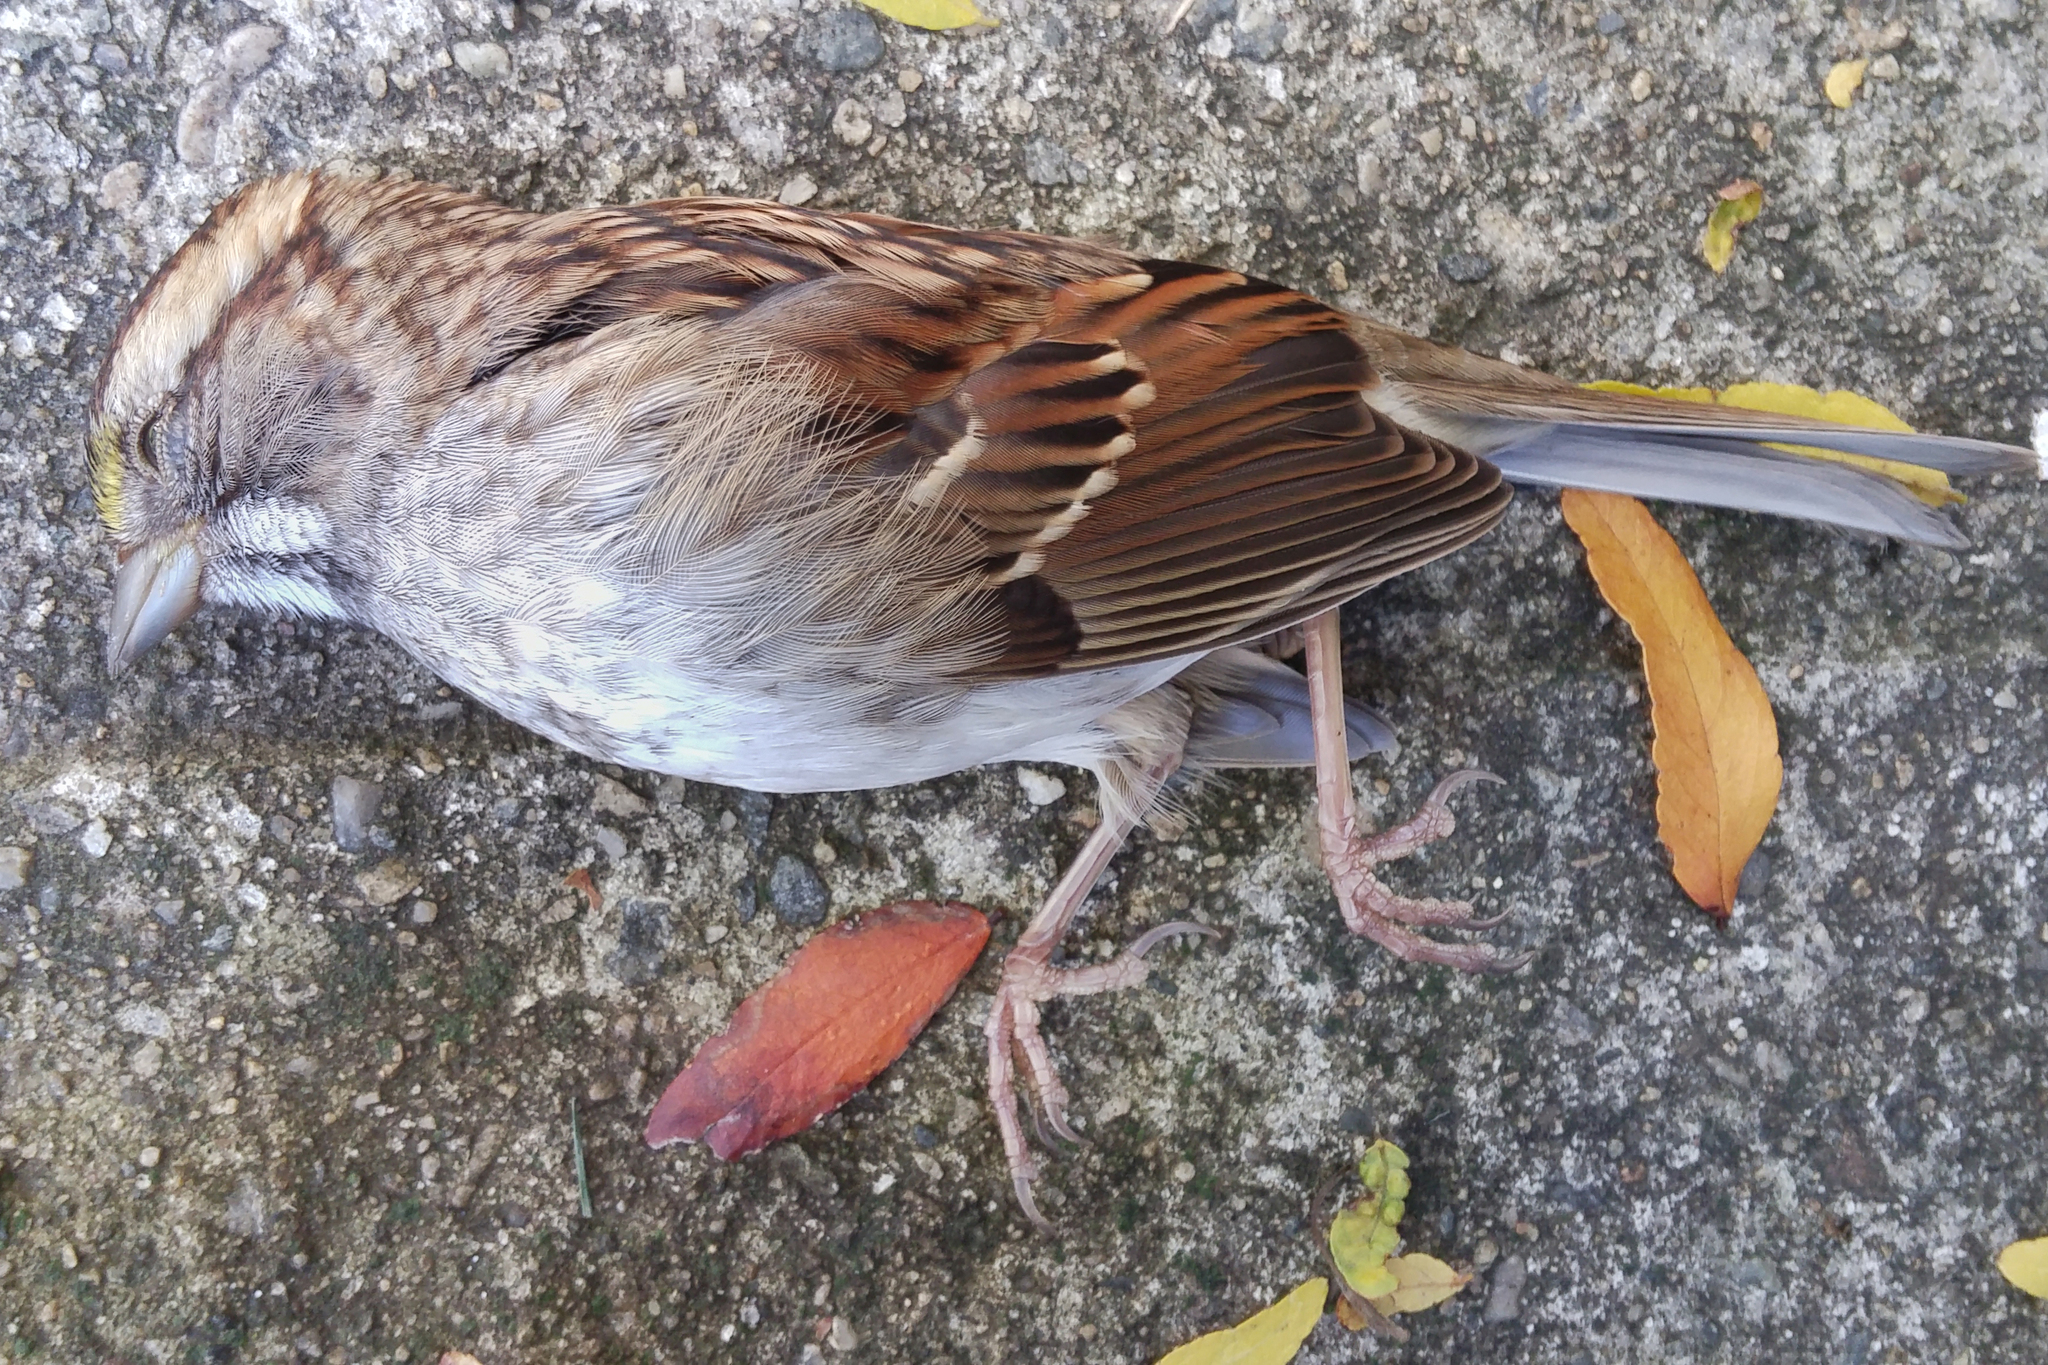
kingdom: Animalia
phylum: Chordata
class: Aves
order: Passeriformes
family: Passerellidae
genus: Zonotrichia
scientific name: Zonotrichia albicollis
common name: White-throated sparrow
